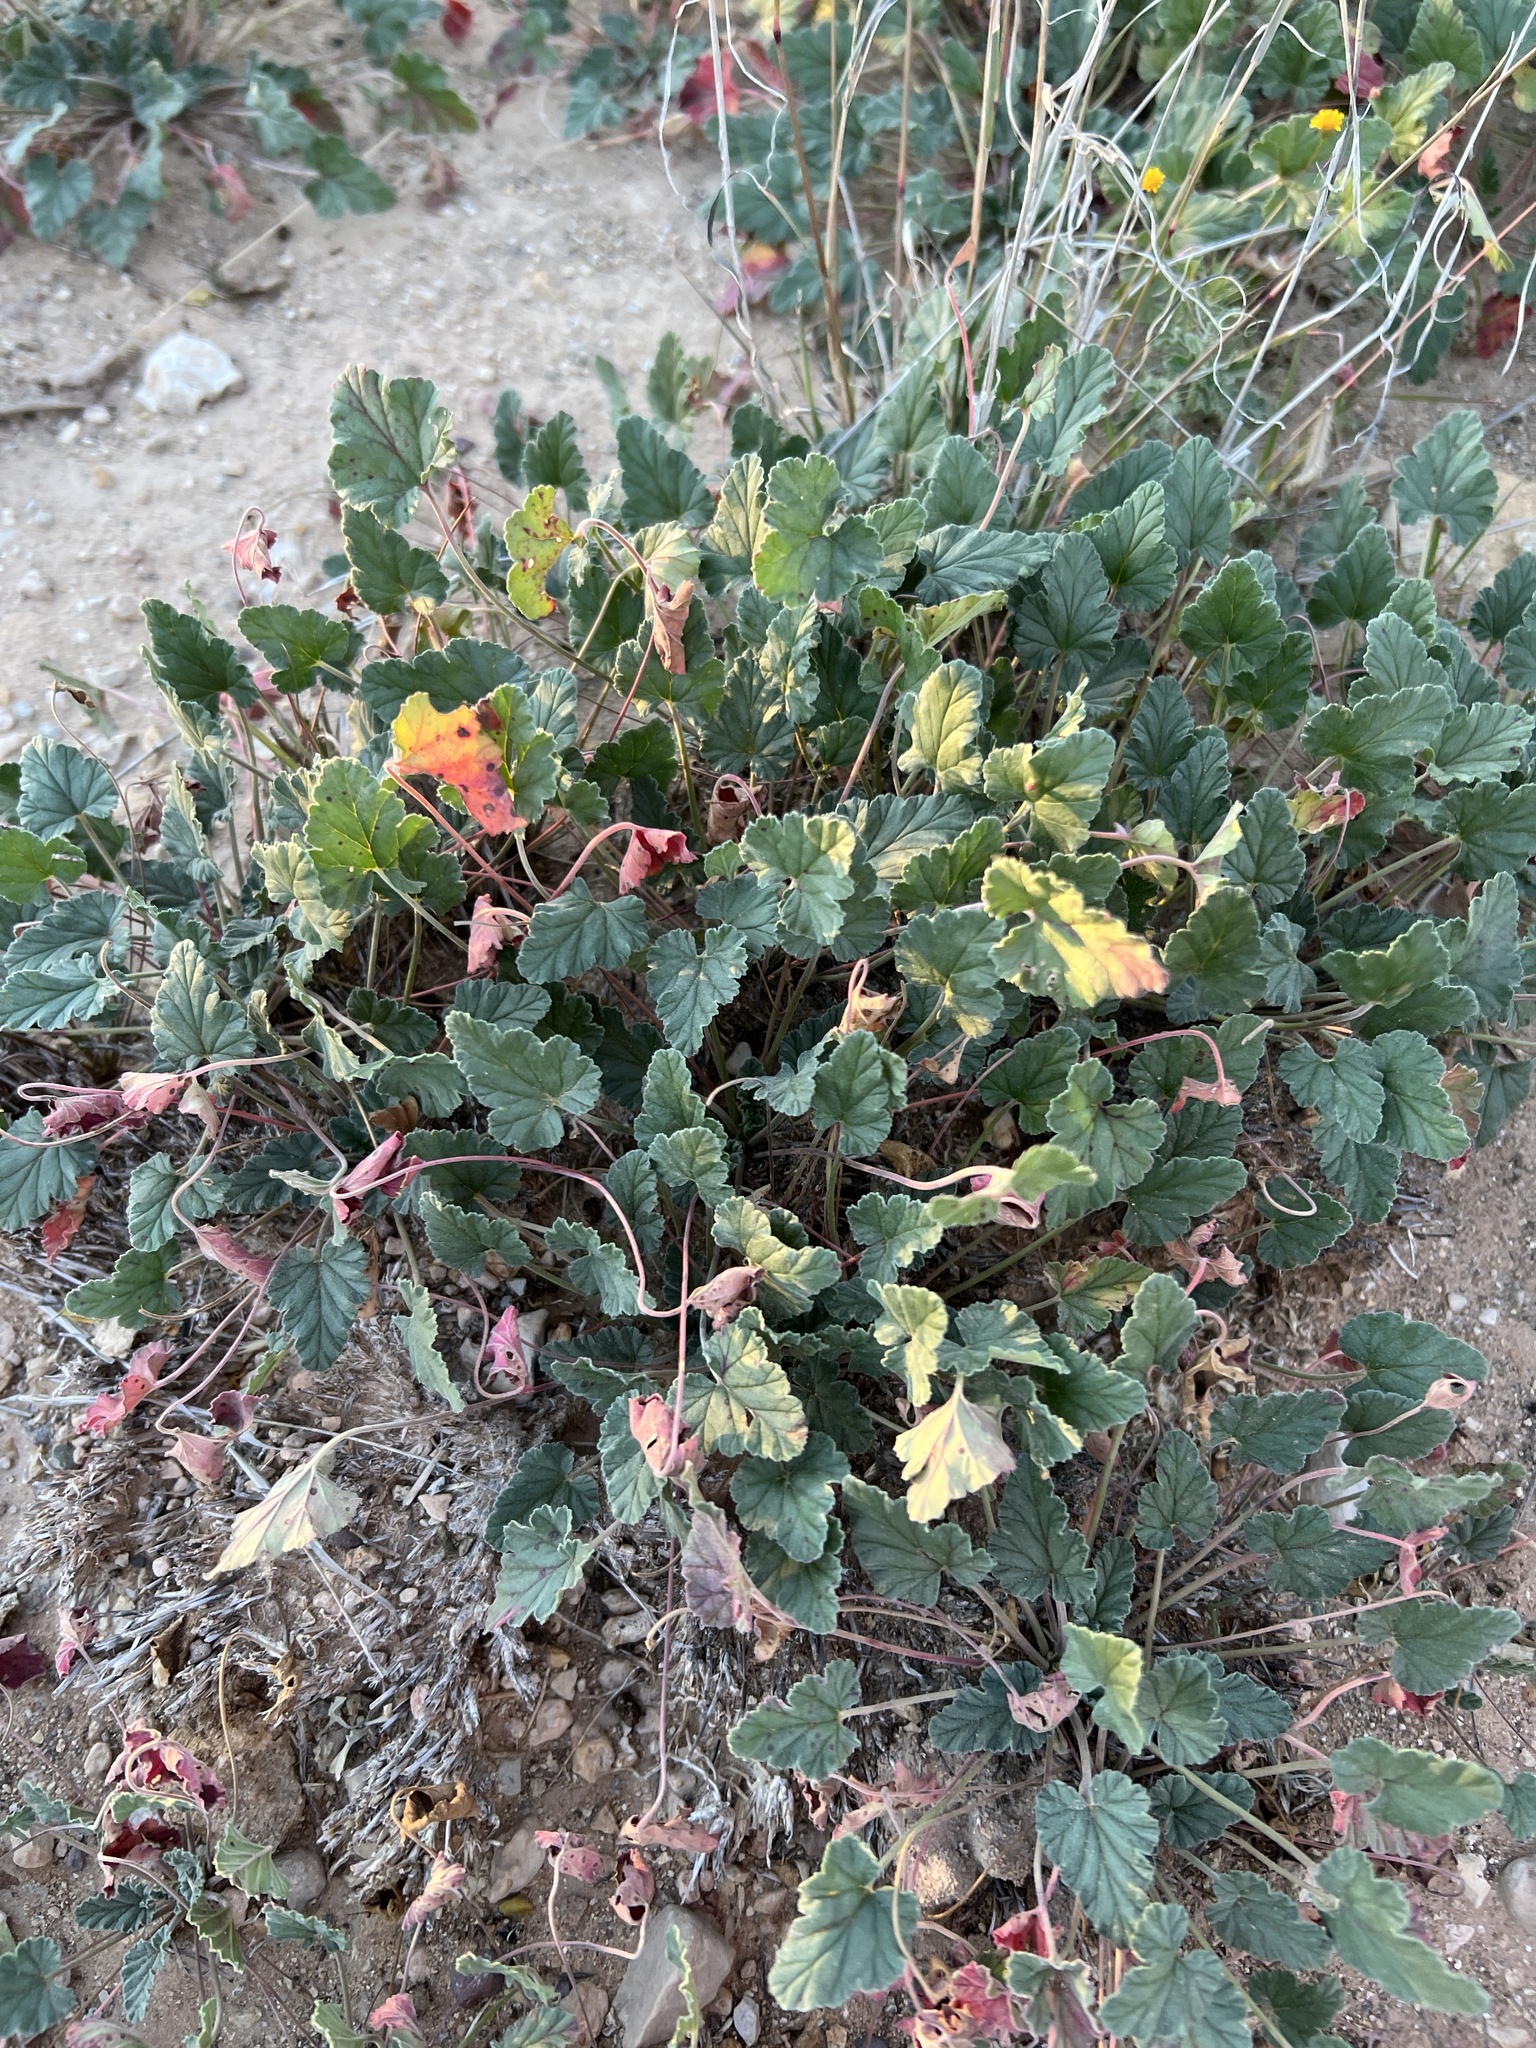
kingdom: Plantae
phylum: Tracheophyta
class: Magnoliopsida
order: Geraniales
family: Geraniaceae
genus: Erodium
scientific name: Erodium texanum
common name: Texas stork's-bill
